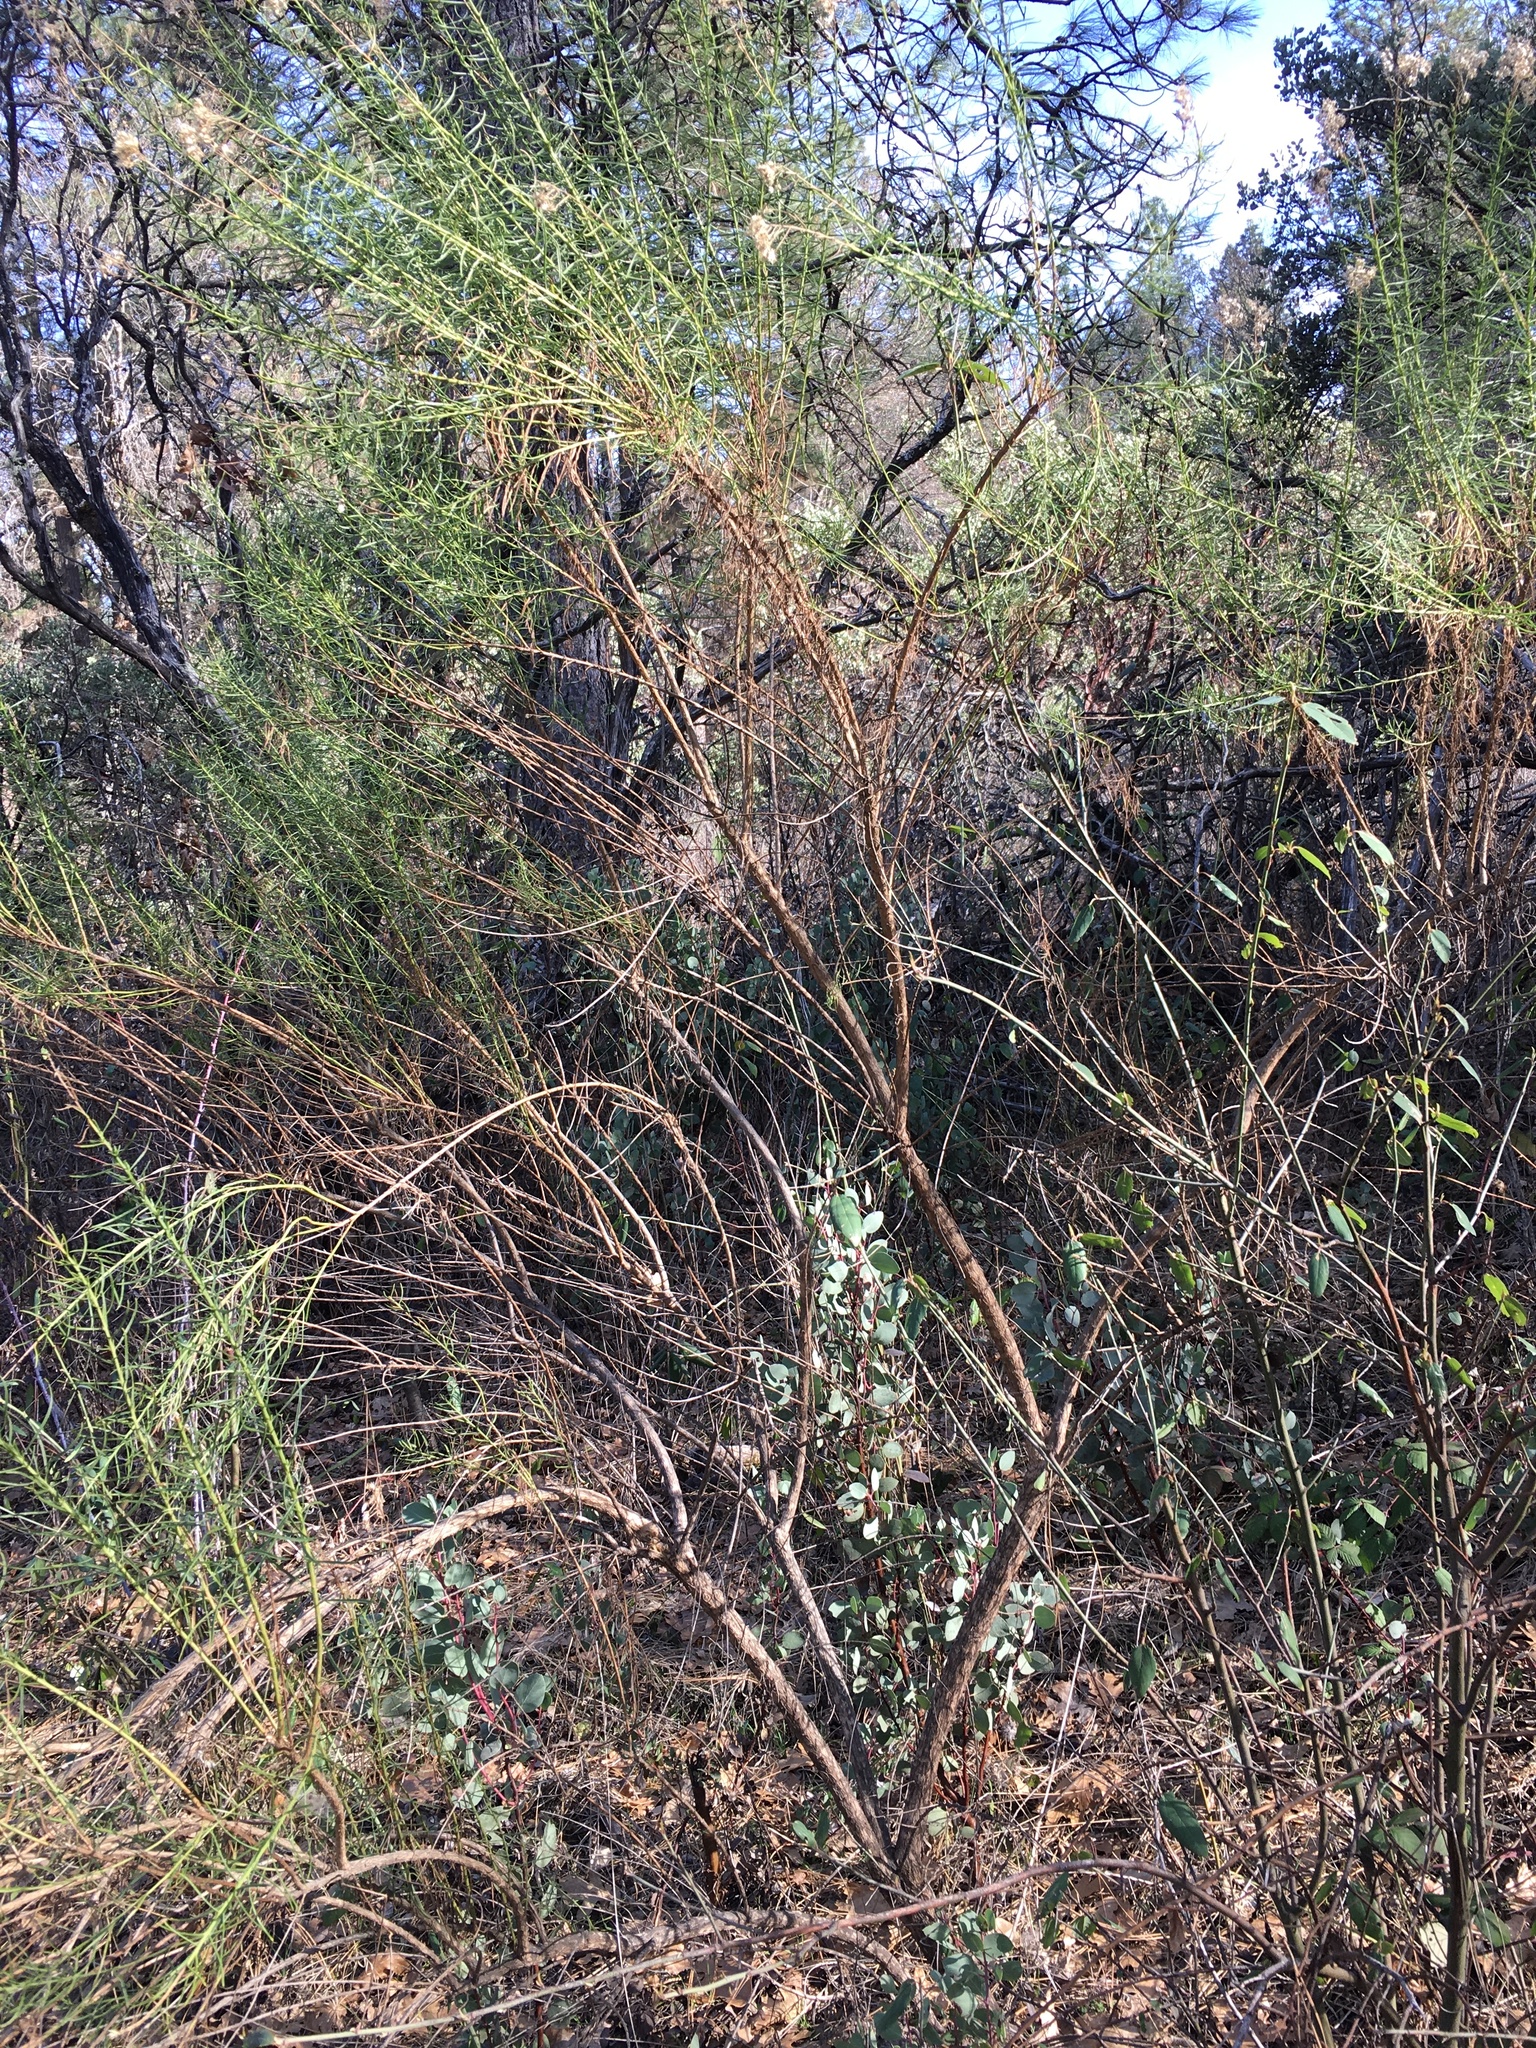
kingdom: Plantae
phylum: Tracheophyta
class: Magnoliopsida
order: Asterales
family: Asteraceae
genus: Ericameria
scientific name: Ericameria arborescens
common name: Goldenfleece
